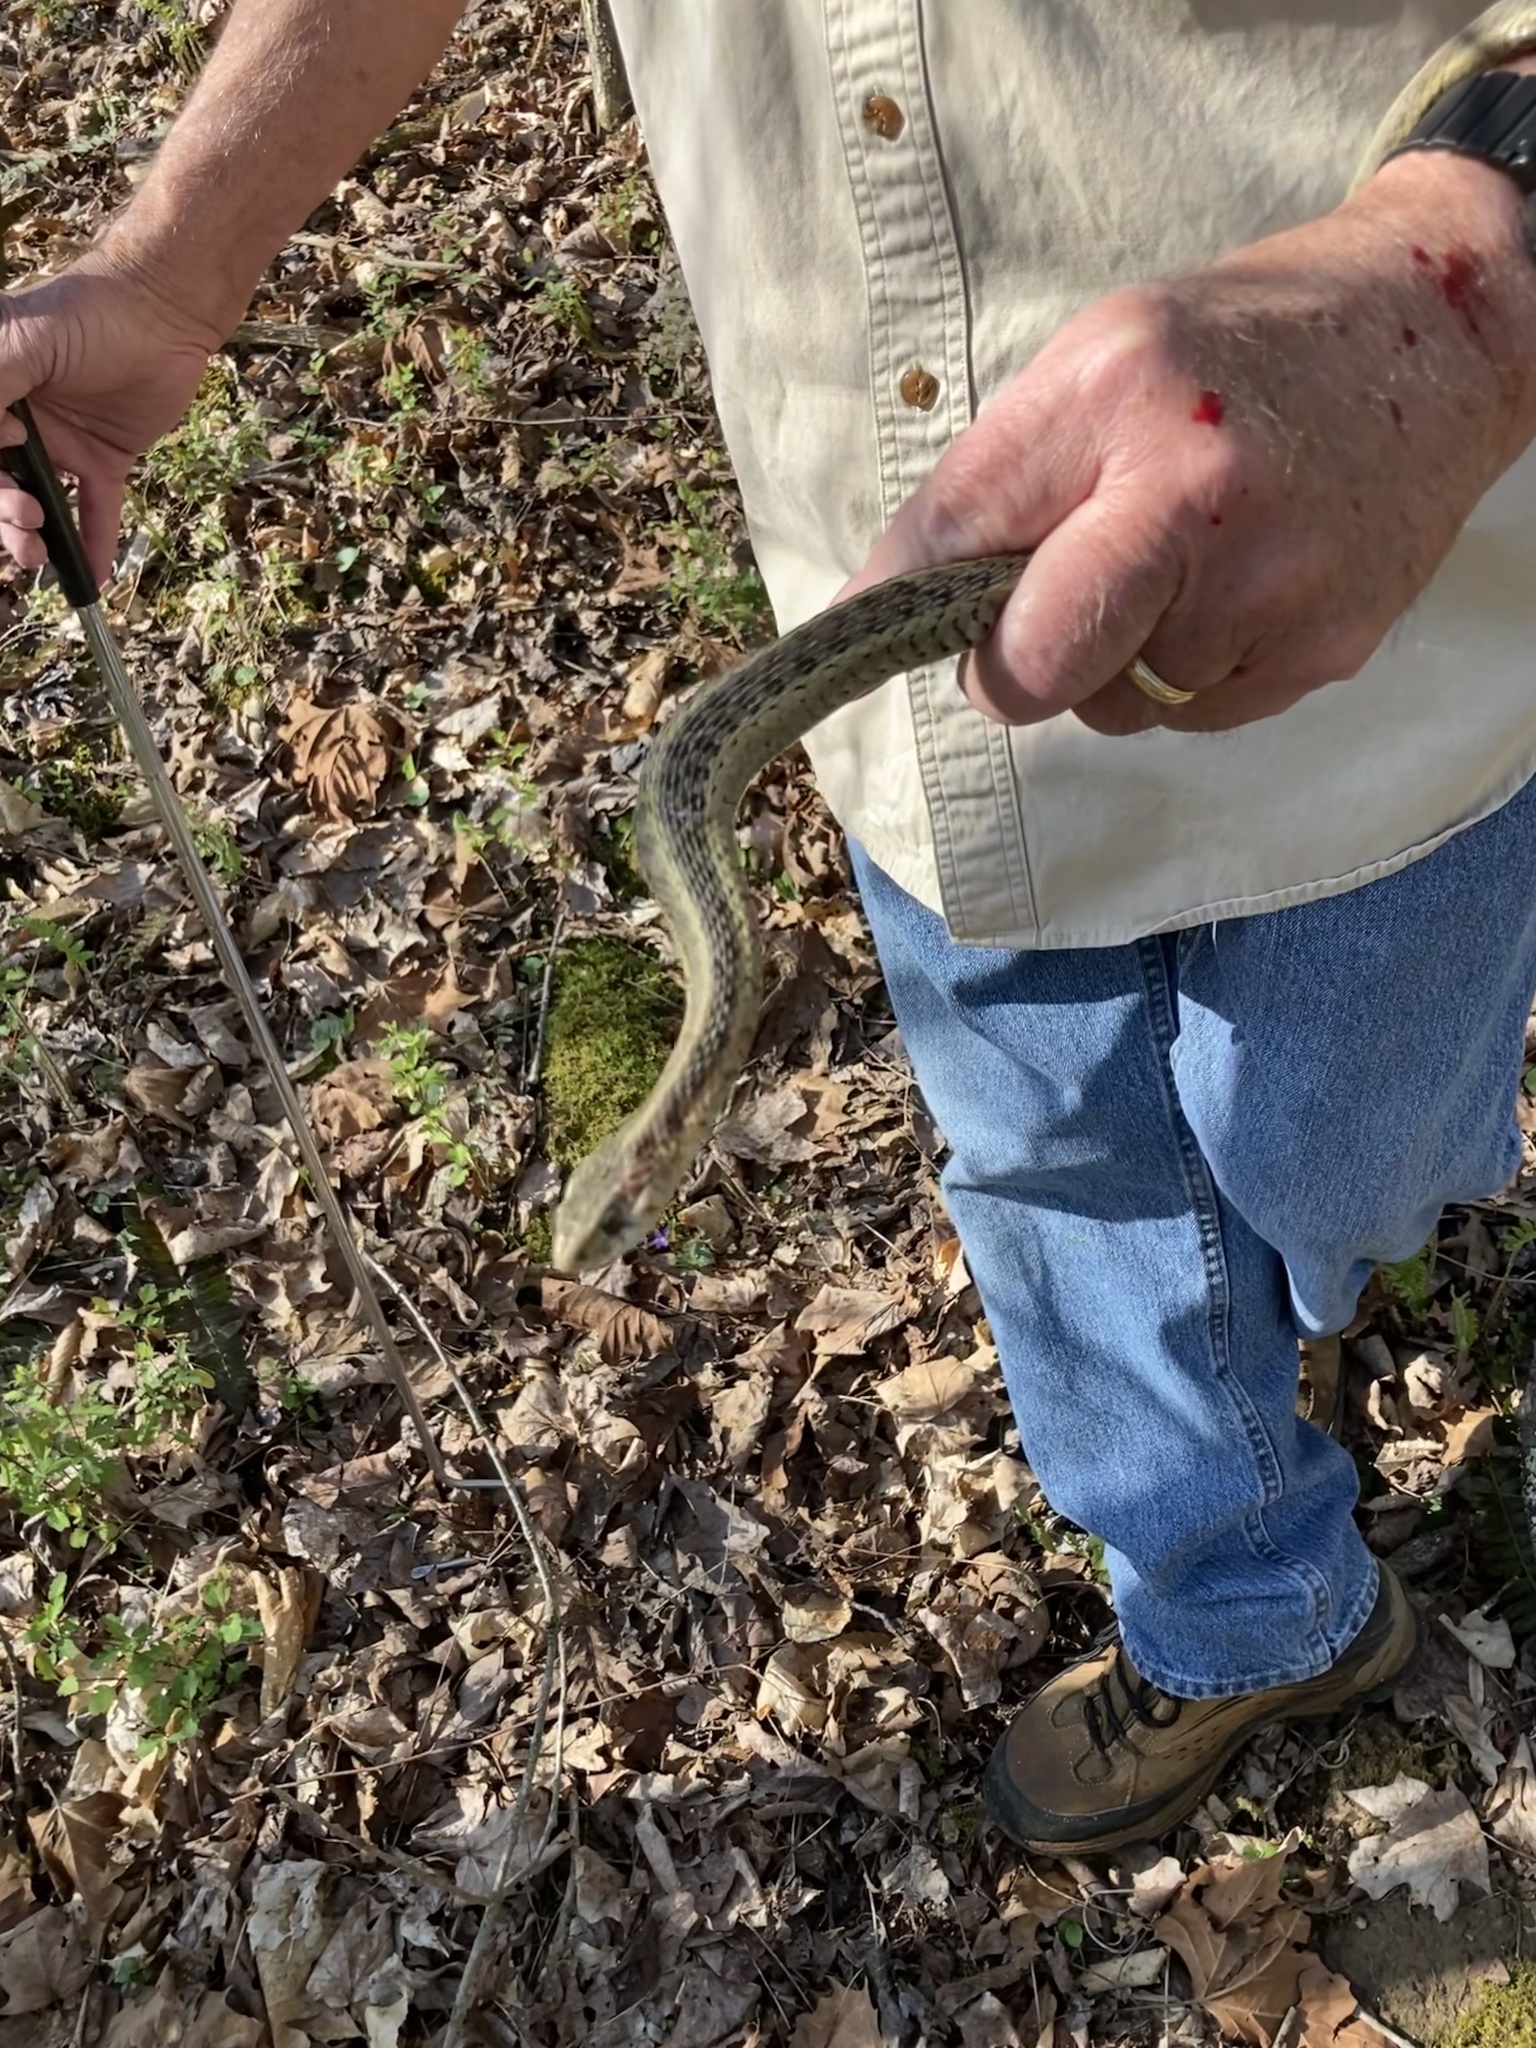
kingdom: Animalia
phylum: Chordata
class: Squamata
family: Colubridae
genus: Thamnophis
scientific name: Thamnophis sirtalis
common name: Common garter snake
